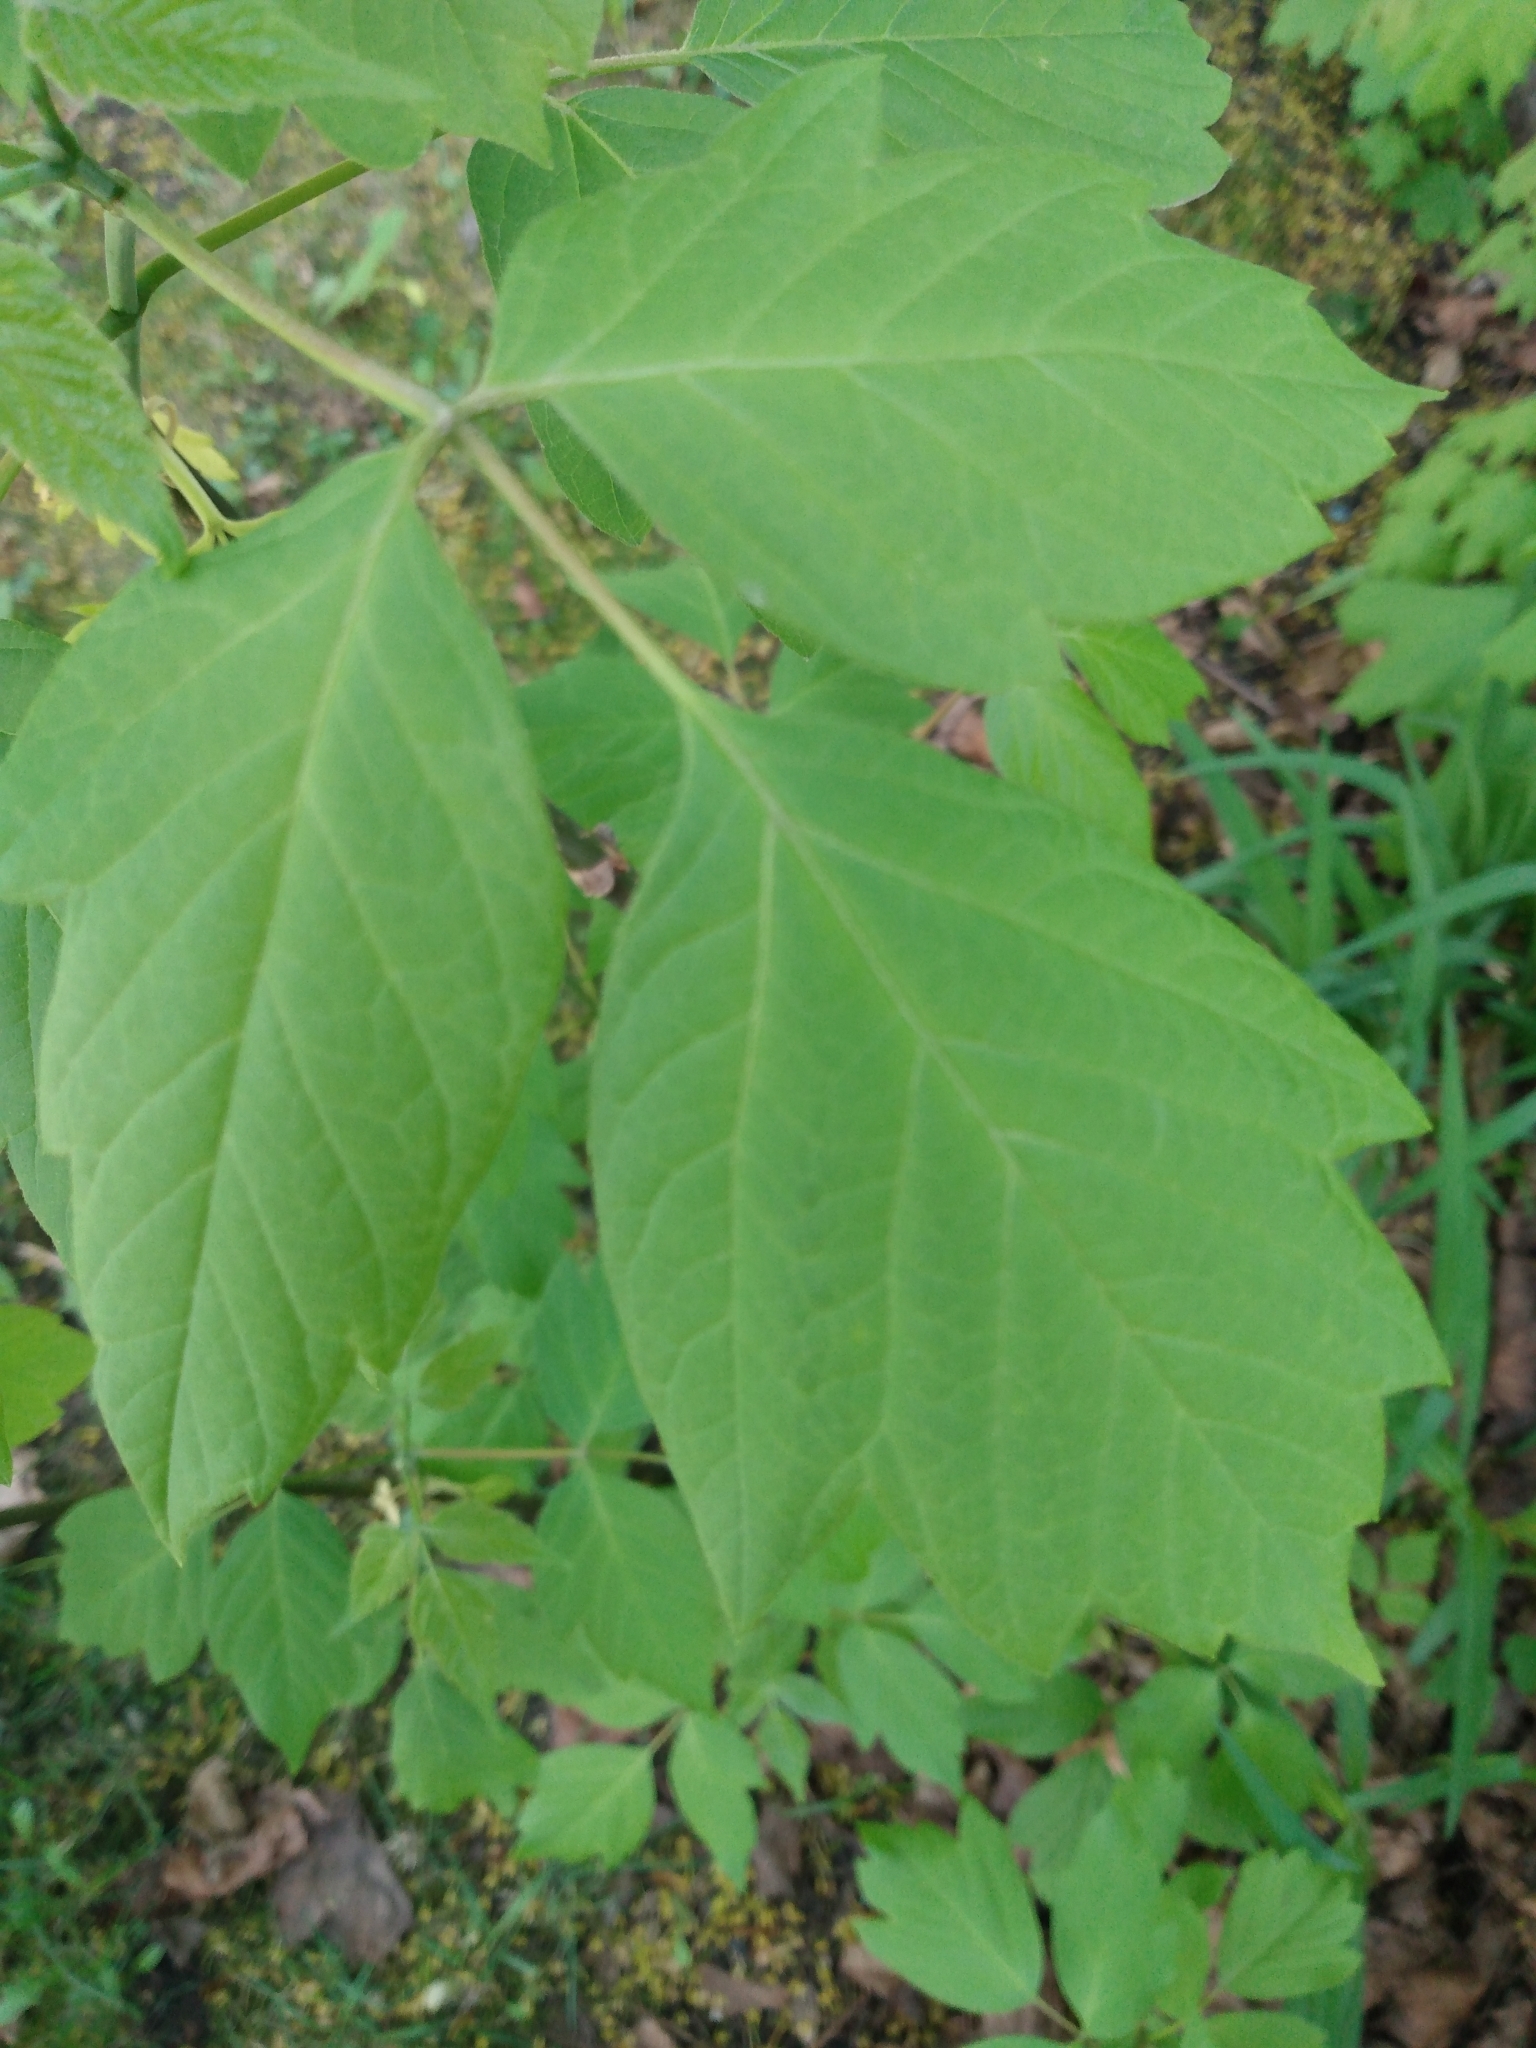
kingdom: Plantae
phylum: Tracheophyta
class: Magnoliopsida
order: Sapindales
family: Sapindaceae
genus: Acer
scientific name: Acer negundo
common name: Ashleaf maple
